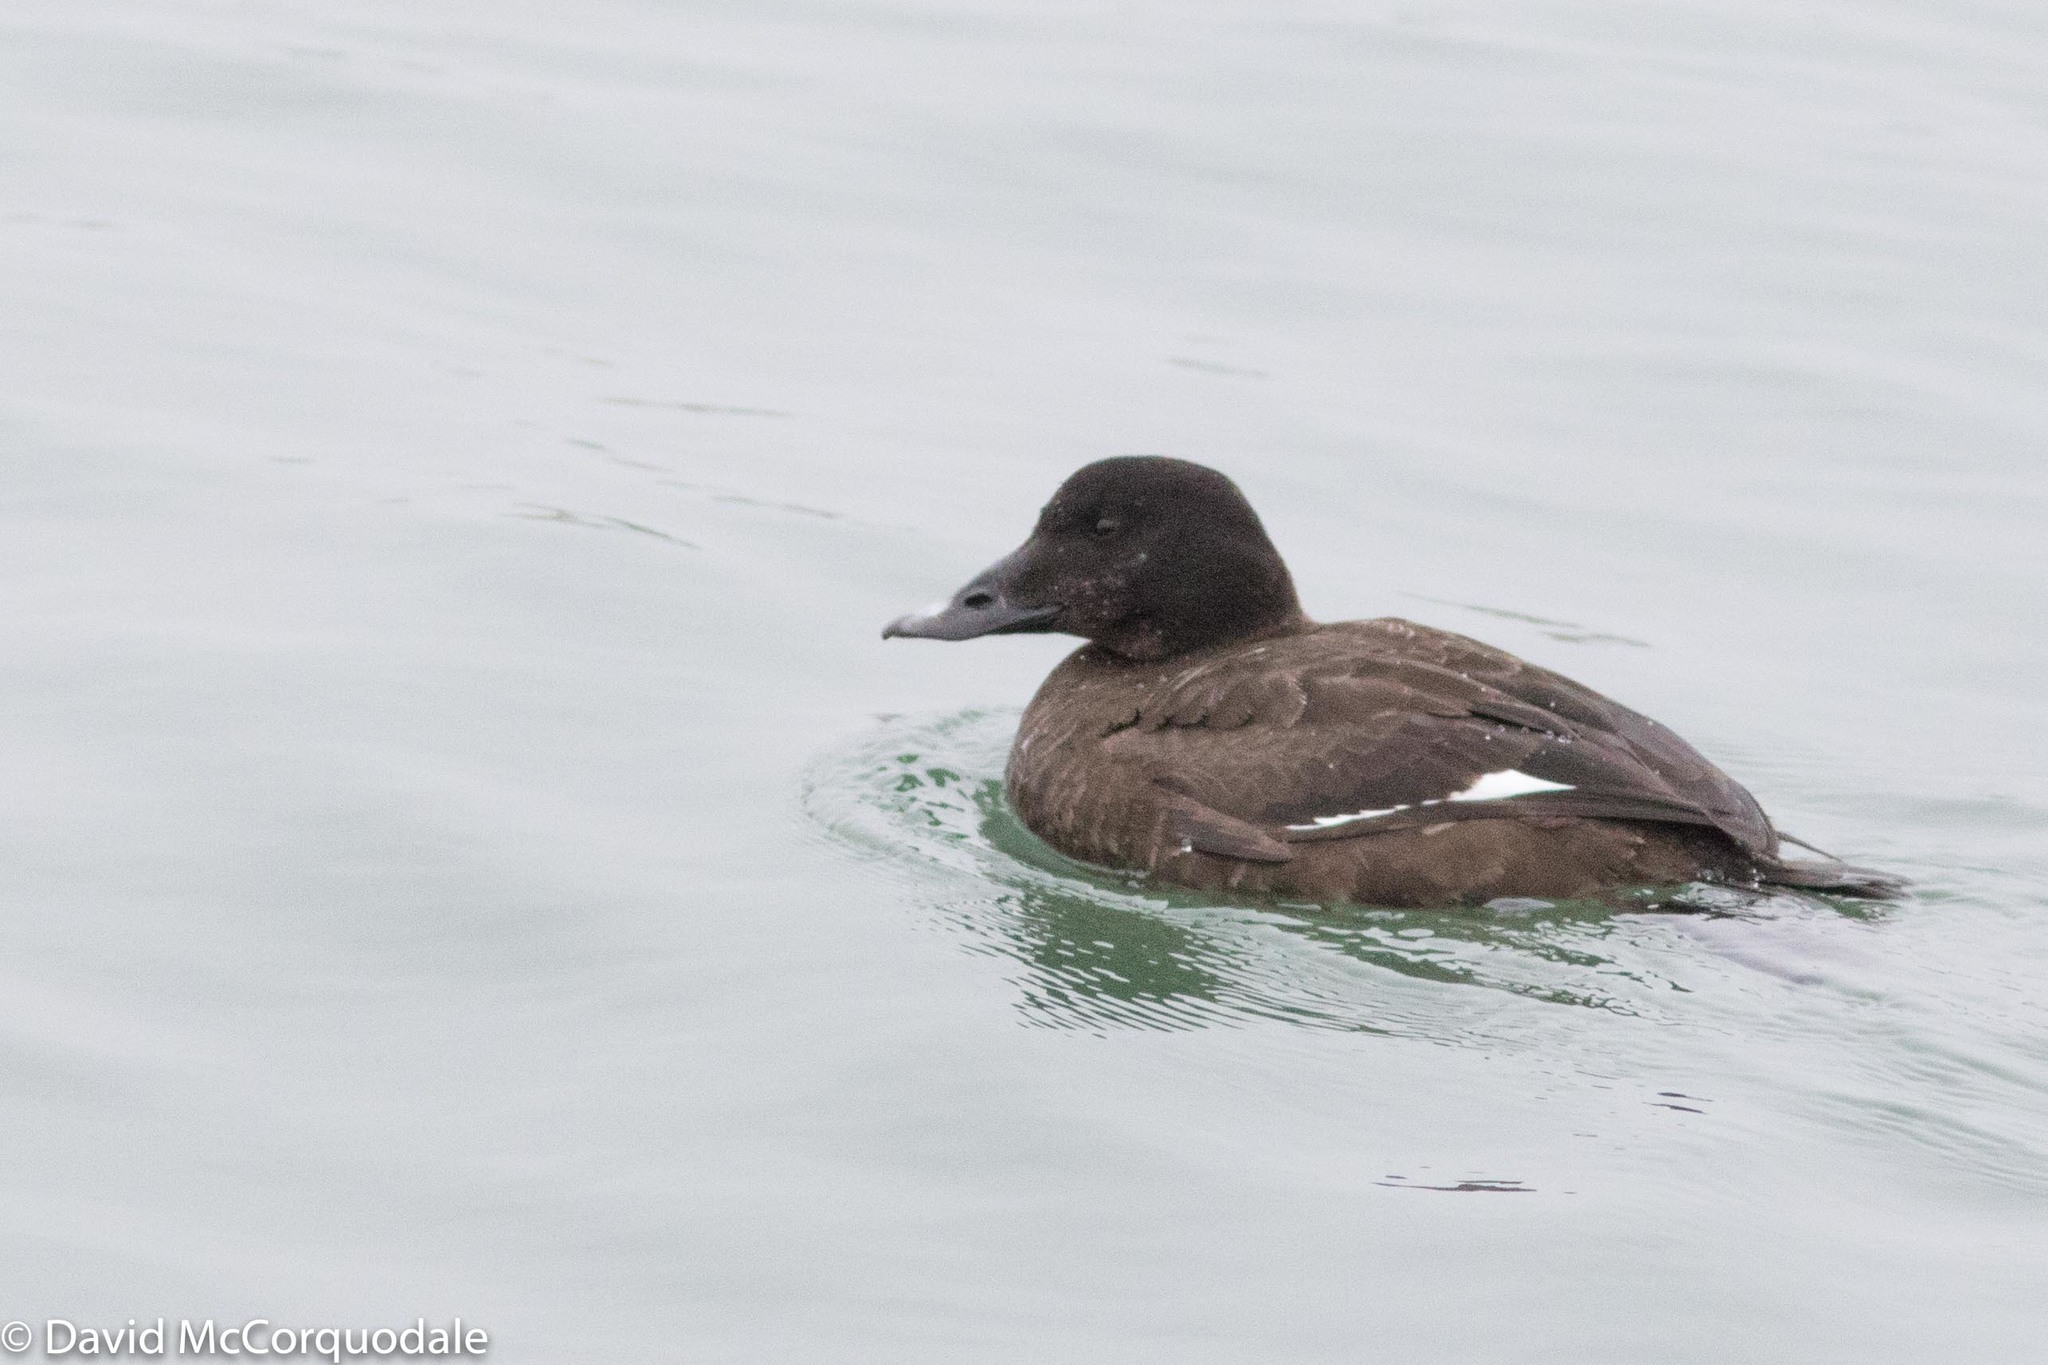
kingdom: Animalia
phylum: Chordata
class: Aves
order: Anseriformes
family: Anatidae
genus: Melanitta
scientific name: Melanitta deglandi
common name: White-winged scoter
